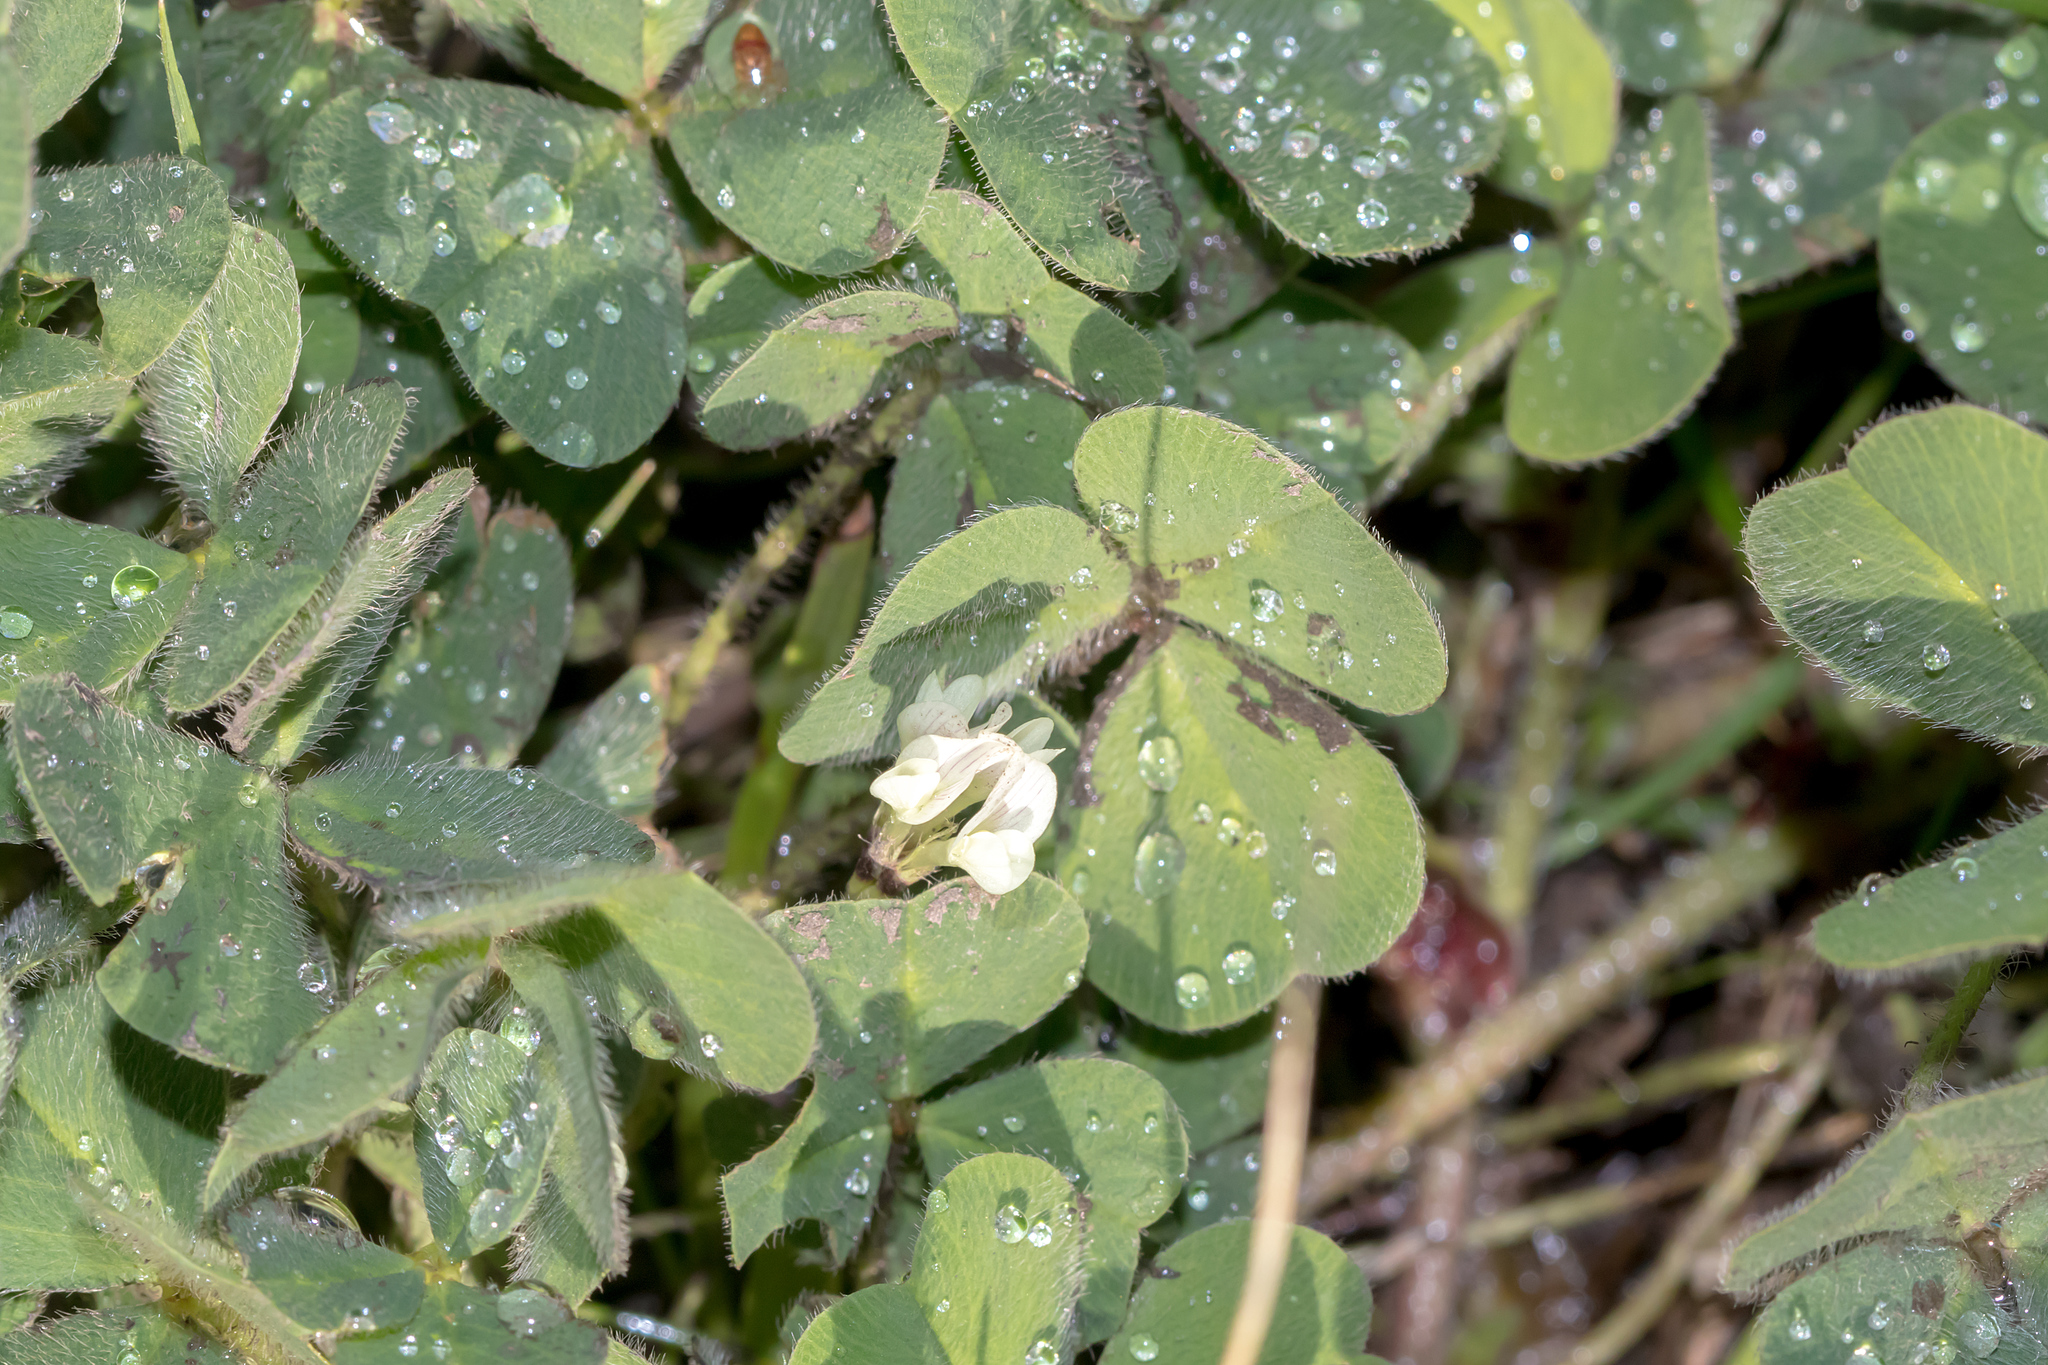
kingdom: Plantae
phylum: Tracheophyta
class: Magnoliopsida
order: Fabales
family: Fabaceae
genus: Trifolium
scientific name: Trifolium subterraneum
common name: Subterranean clover
